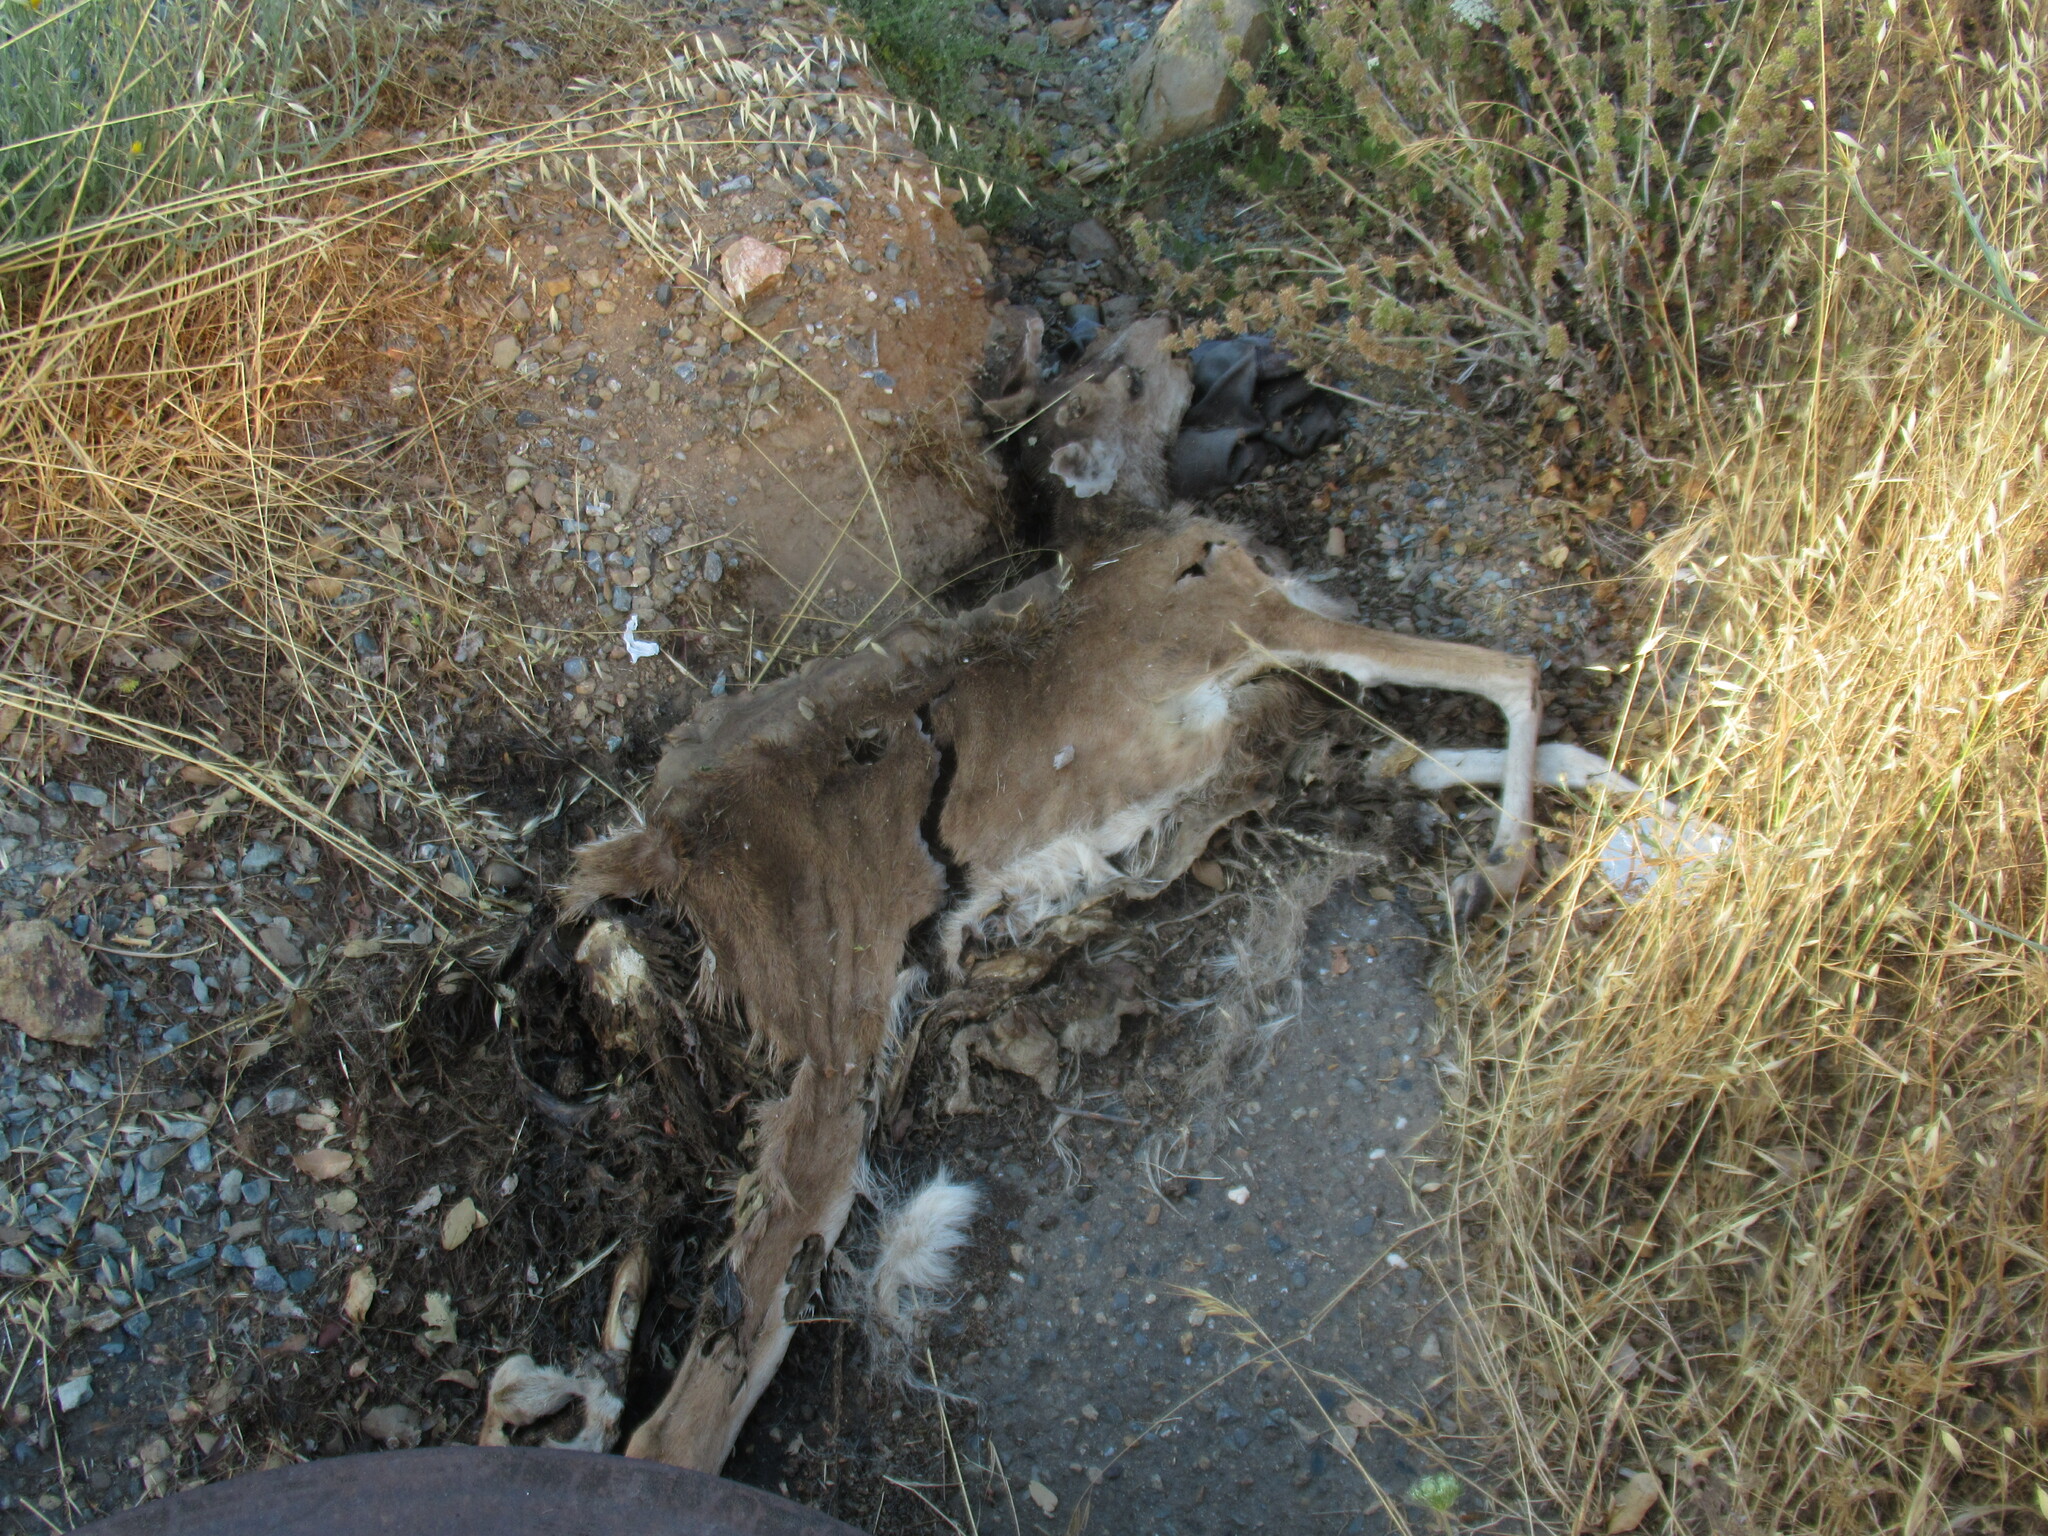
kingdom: Animalia
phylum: Chordata
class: Mammalia
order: Artiodactyla
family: Cervidae
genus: Odocoileus
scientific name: Odocoileus hemionus
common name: Mule deer
